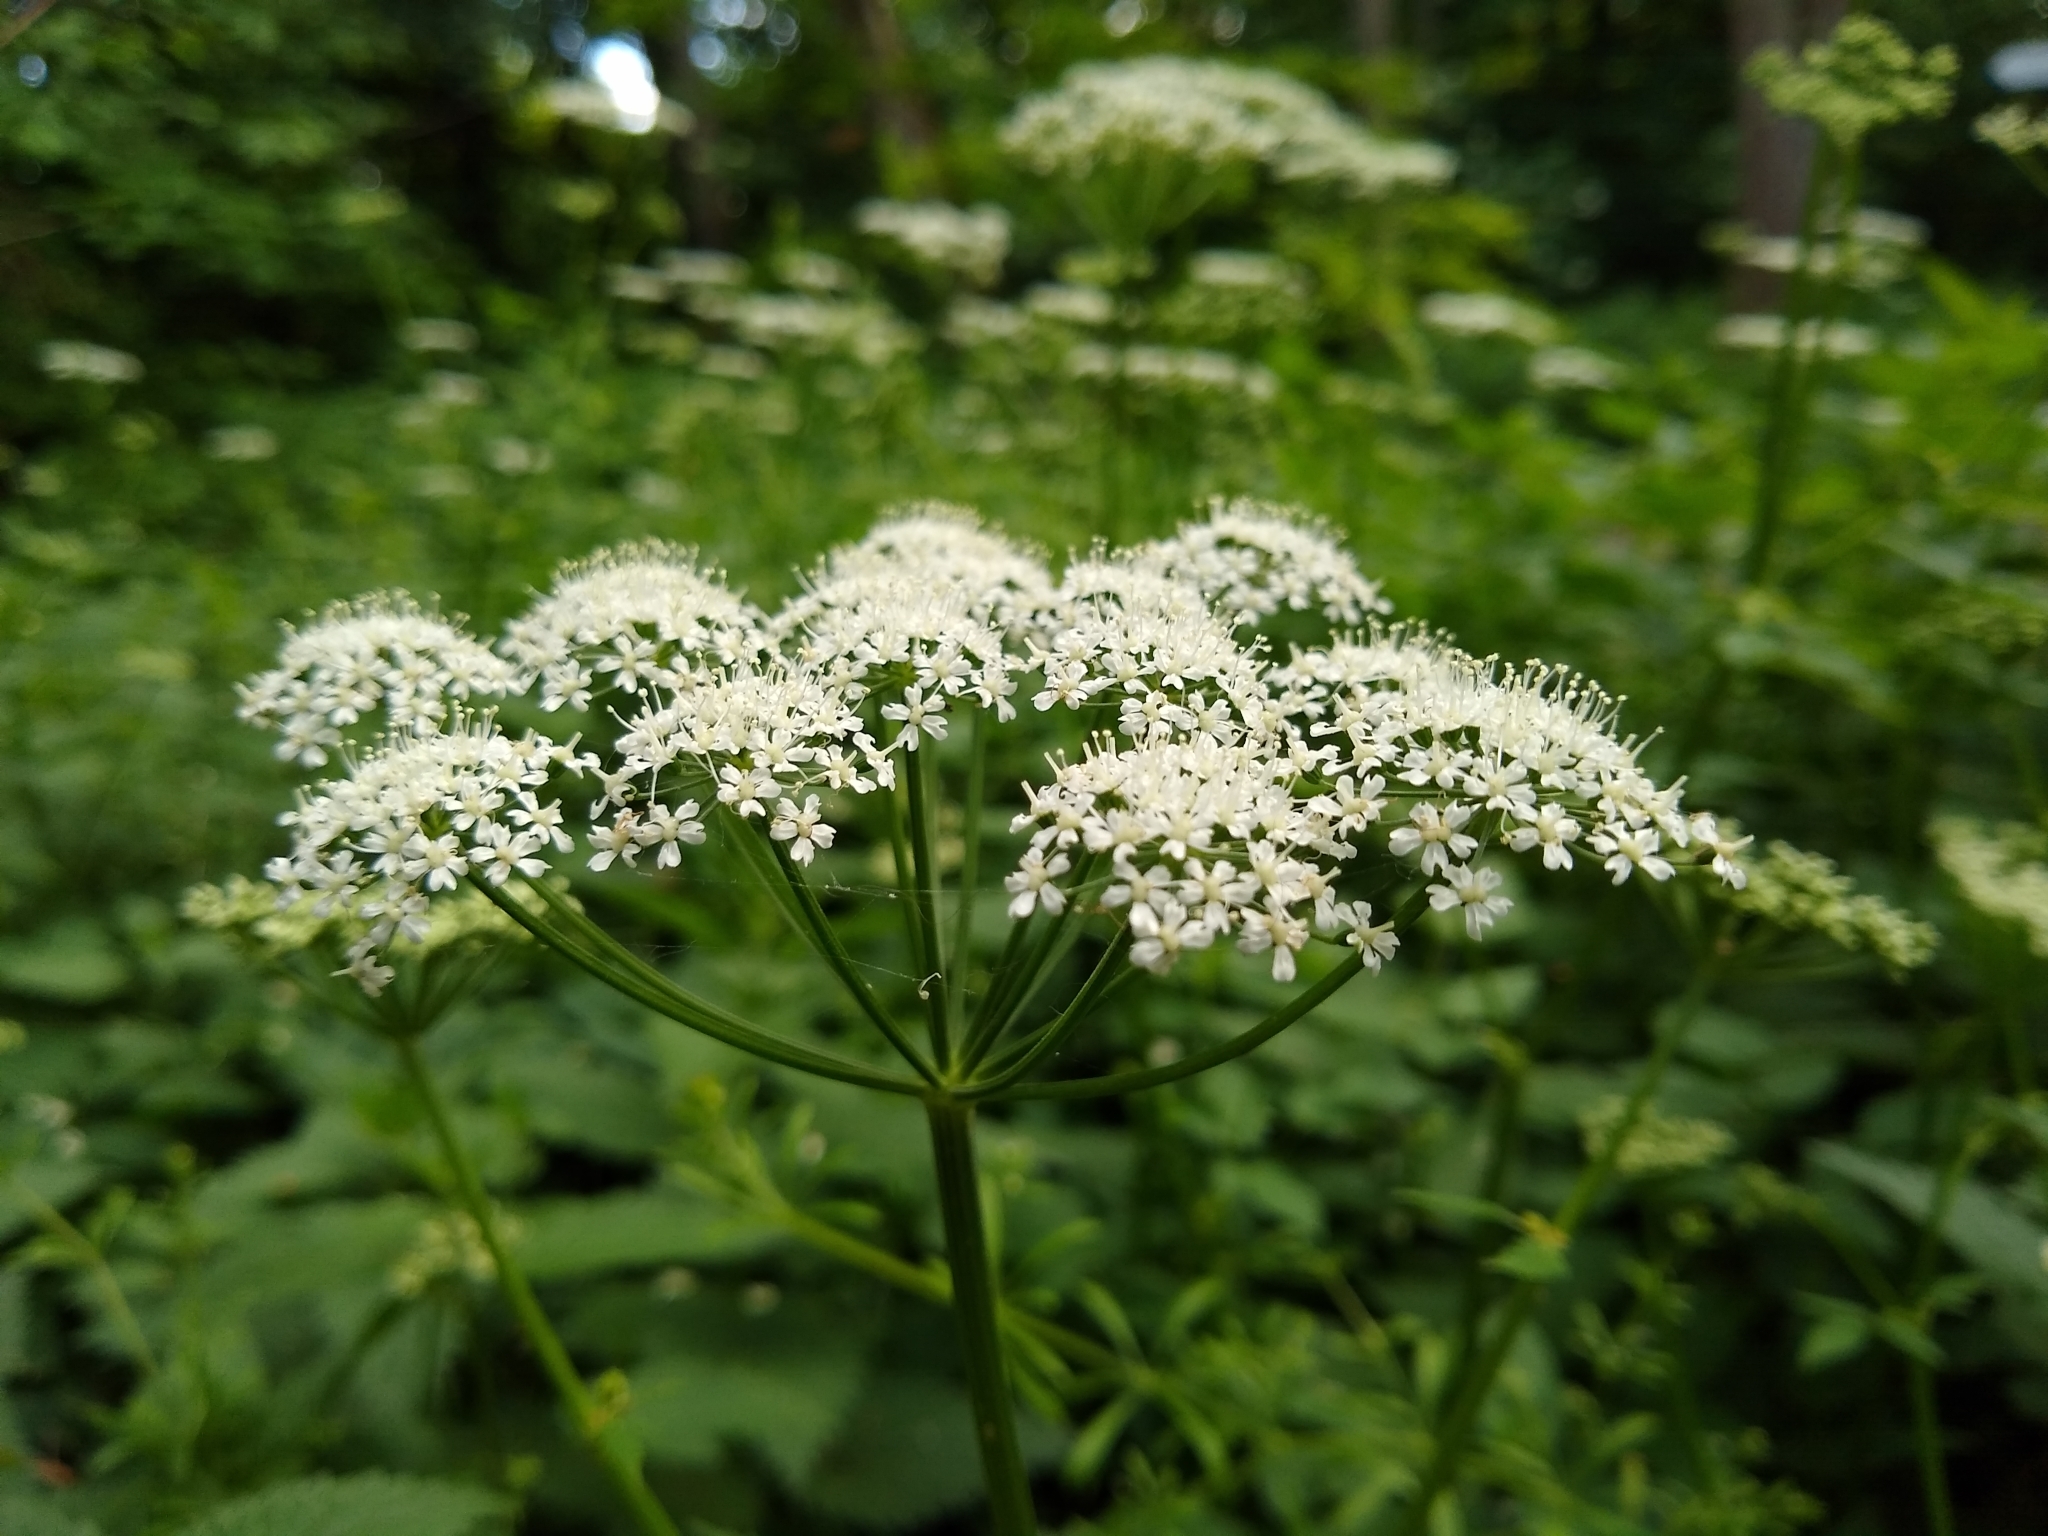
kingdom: Plantae
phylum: Tracheophyta
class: Magnoliopsida
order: Apiales
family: Apiaceae
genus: Aegopodium
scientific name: Aegopodium podagraria
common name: Ground-elder
